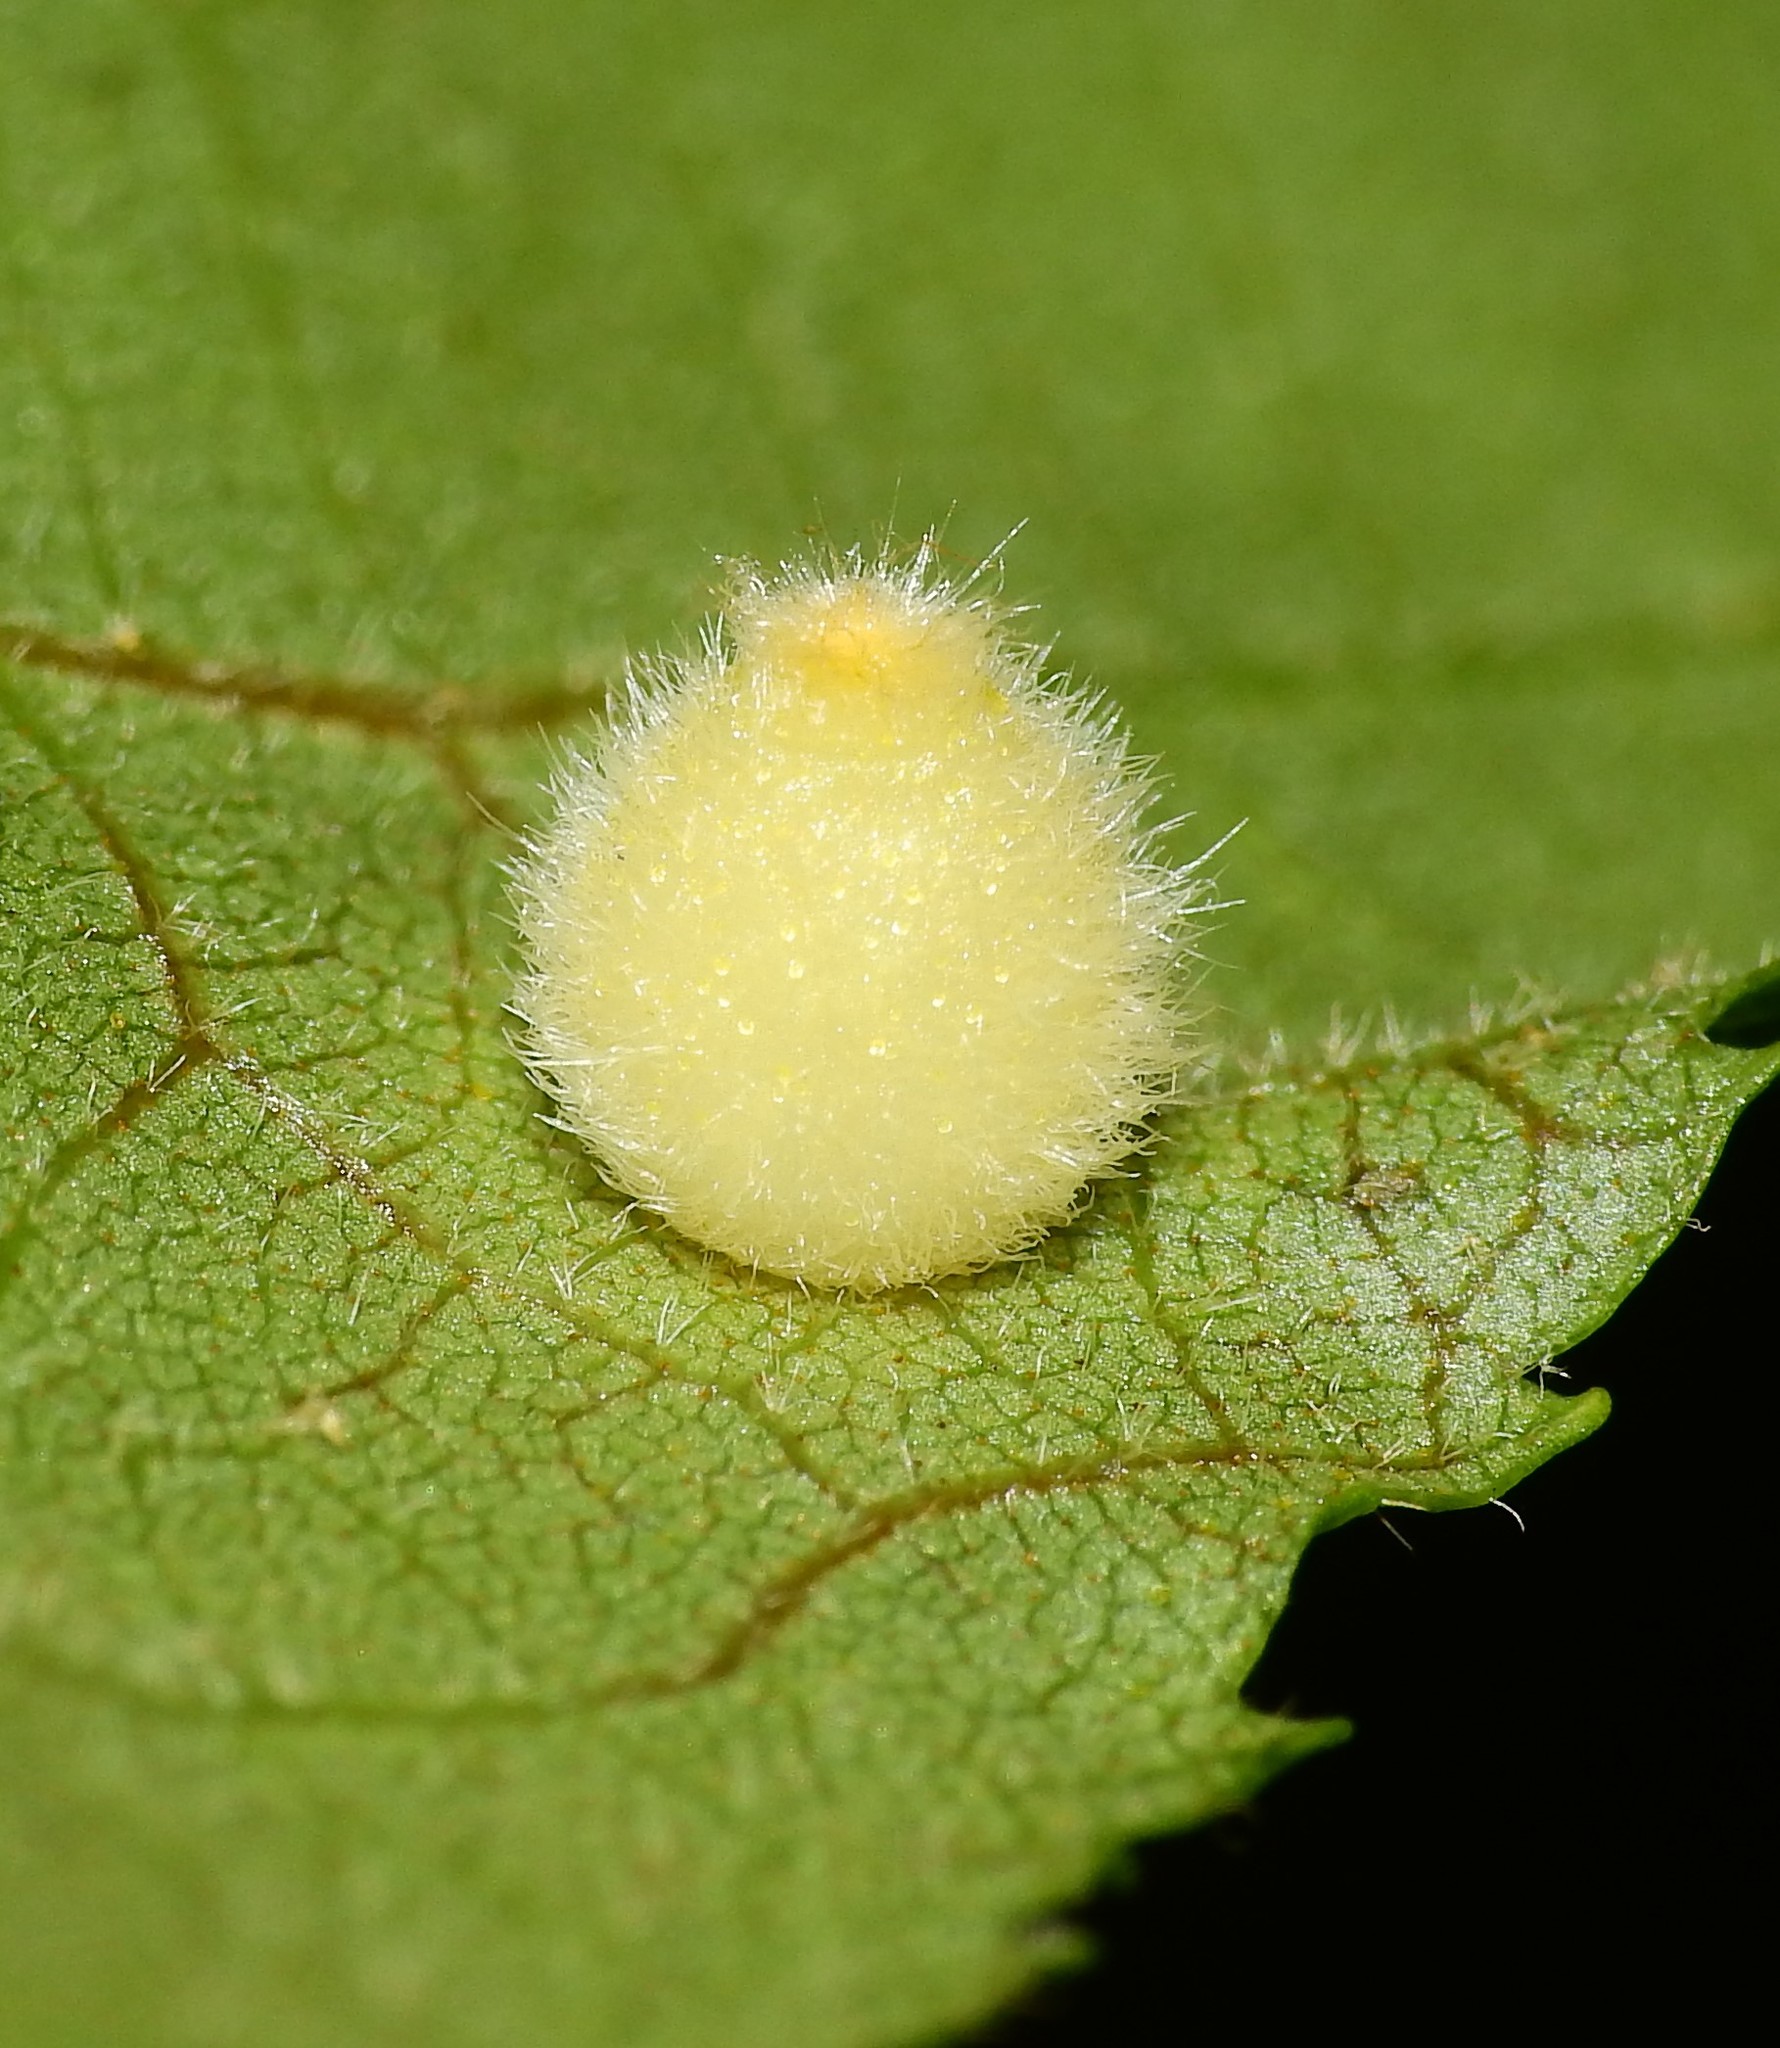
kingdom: Animalia
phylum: Arthropoda
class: Insecta
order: Diptera
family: Cecidomyiidae
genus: Caryomyia
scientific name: Caryomyia hirtidolium
